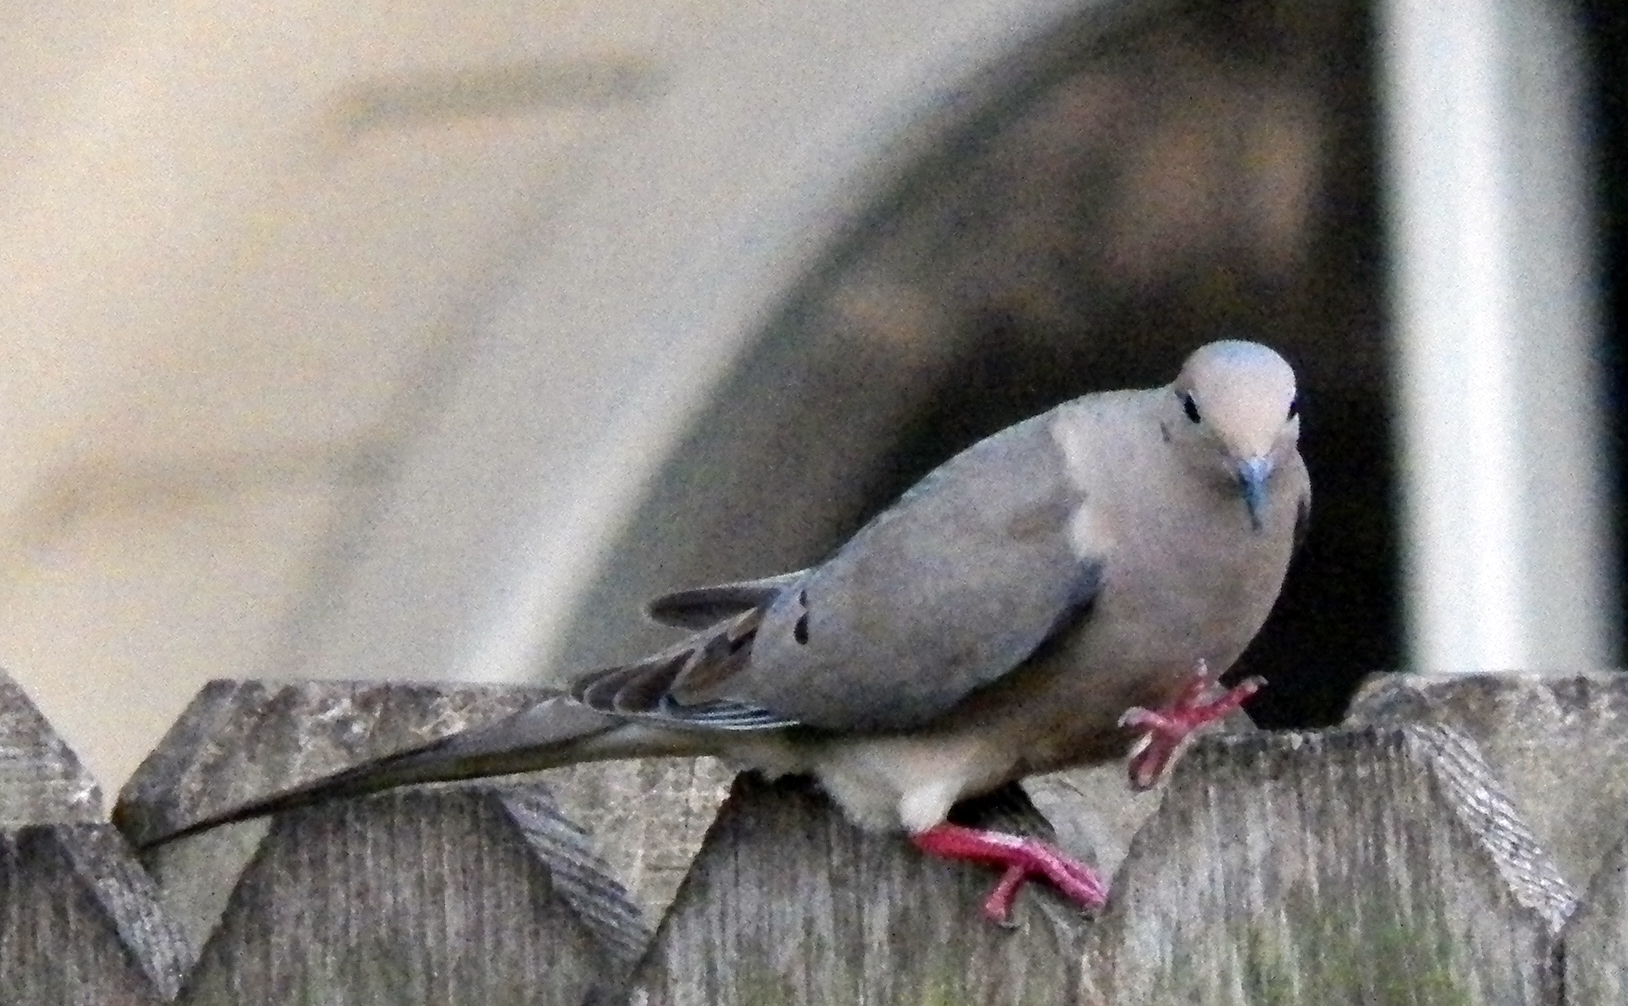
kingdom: Animalia
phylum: Chordata
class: Aves
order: Columbiformes
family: Columbidae
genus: Zenaida
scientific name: Zenaida macroura
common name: Mourning dove
